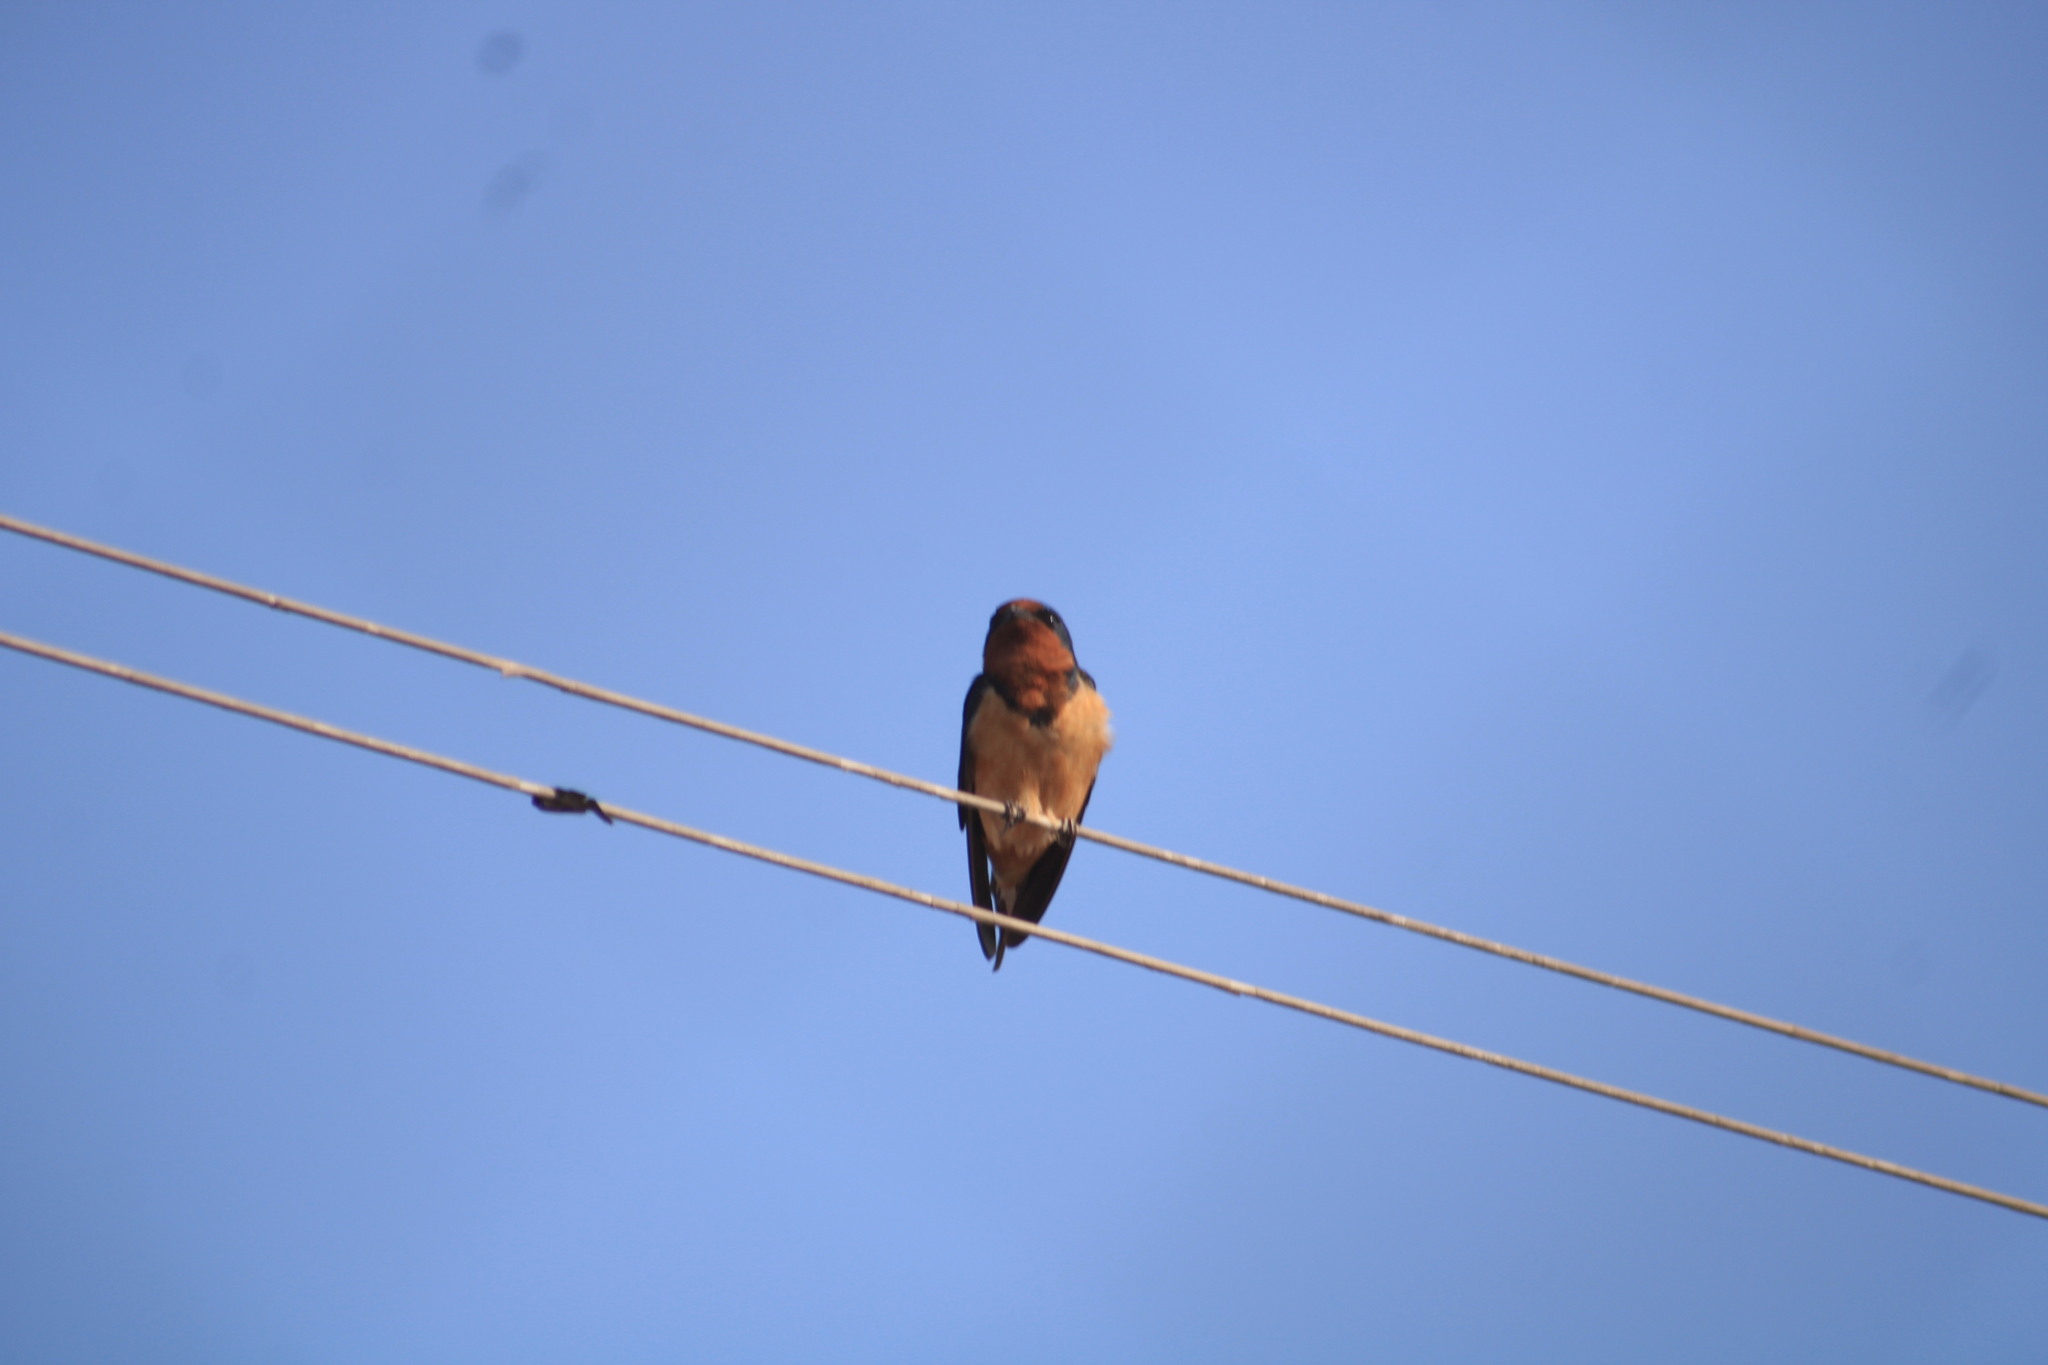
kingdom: Animalia
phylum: Chordata
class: Aves
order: Passeriformes
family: Hirundinidae
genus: Hirundo
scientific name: Hirundo rustica
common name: Barn swallow
